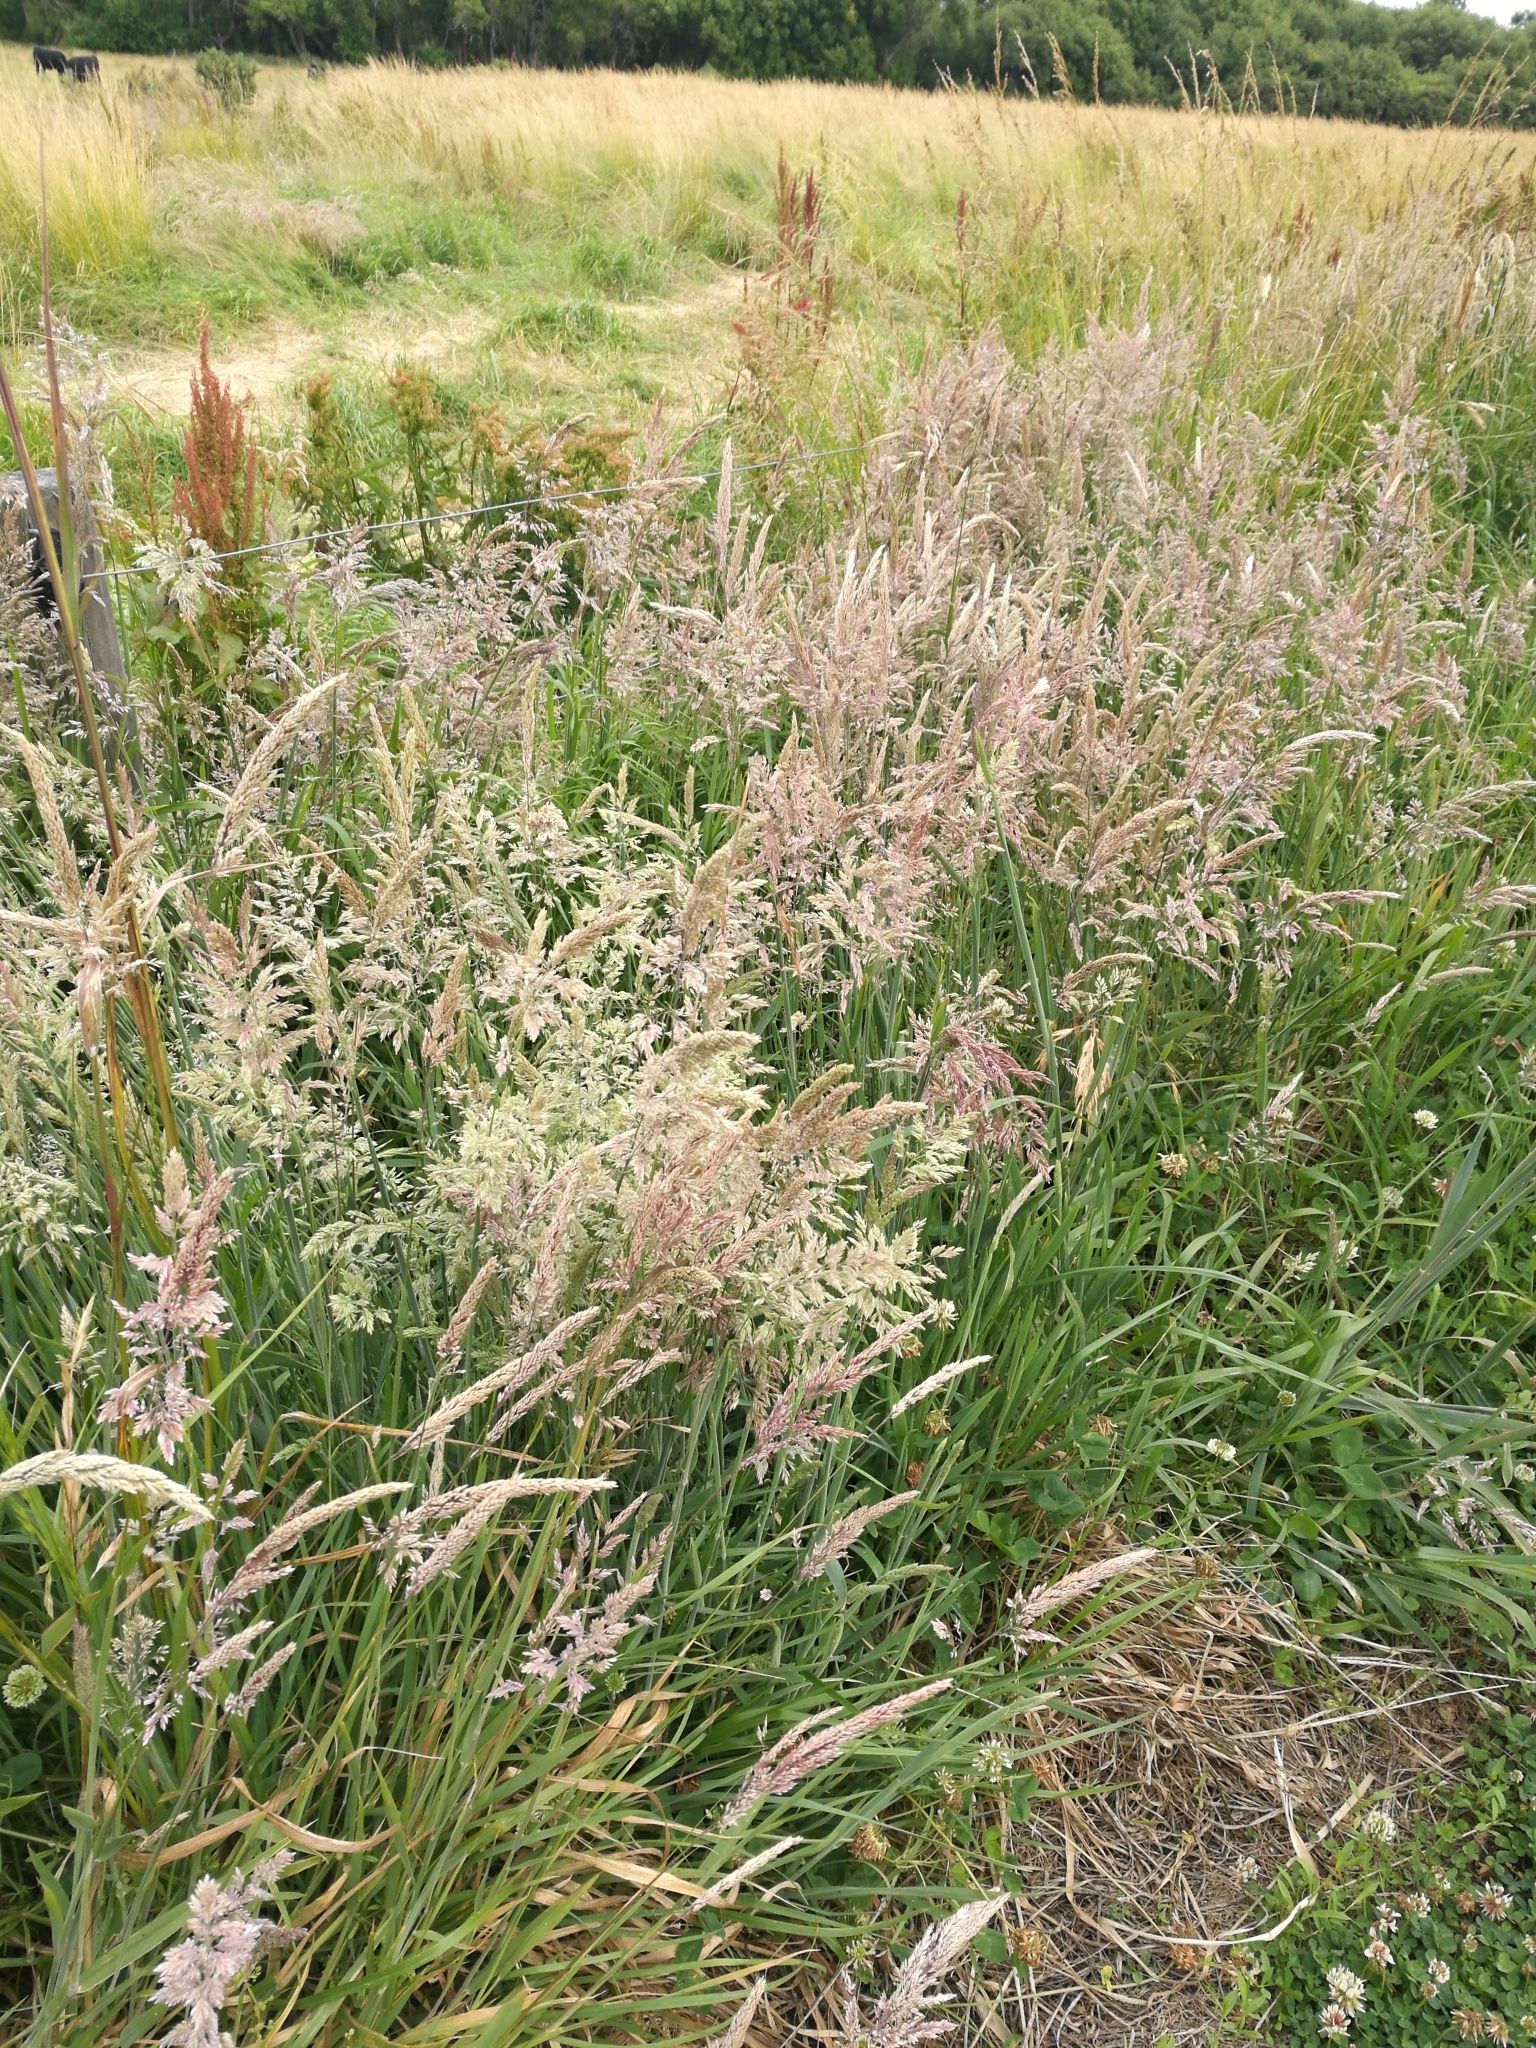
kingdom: Plantae
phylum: Tracheophyta
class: Liliopsida
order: Poales
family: Poaceae
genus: Holcus
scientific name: Holcus lanatus
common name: Yorkshire-fog
